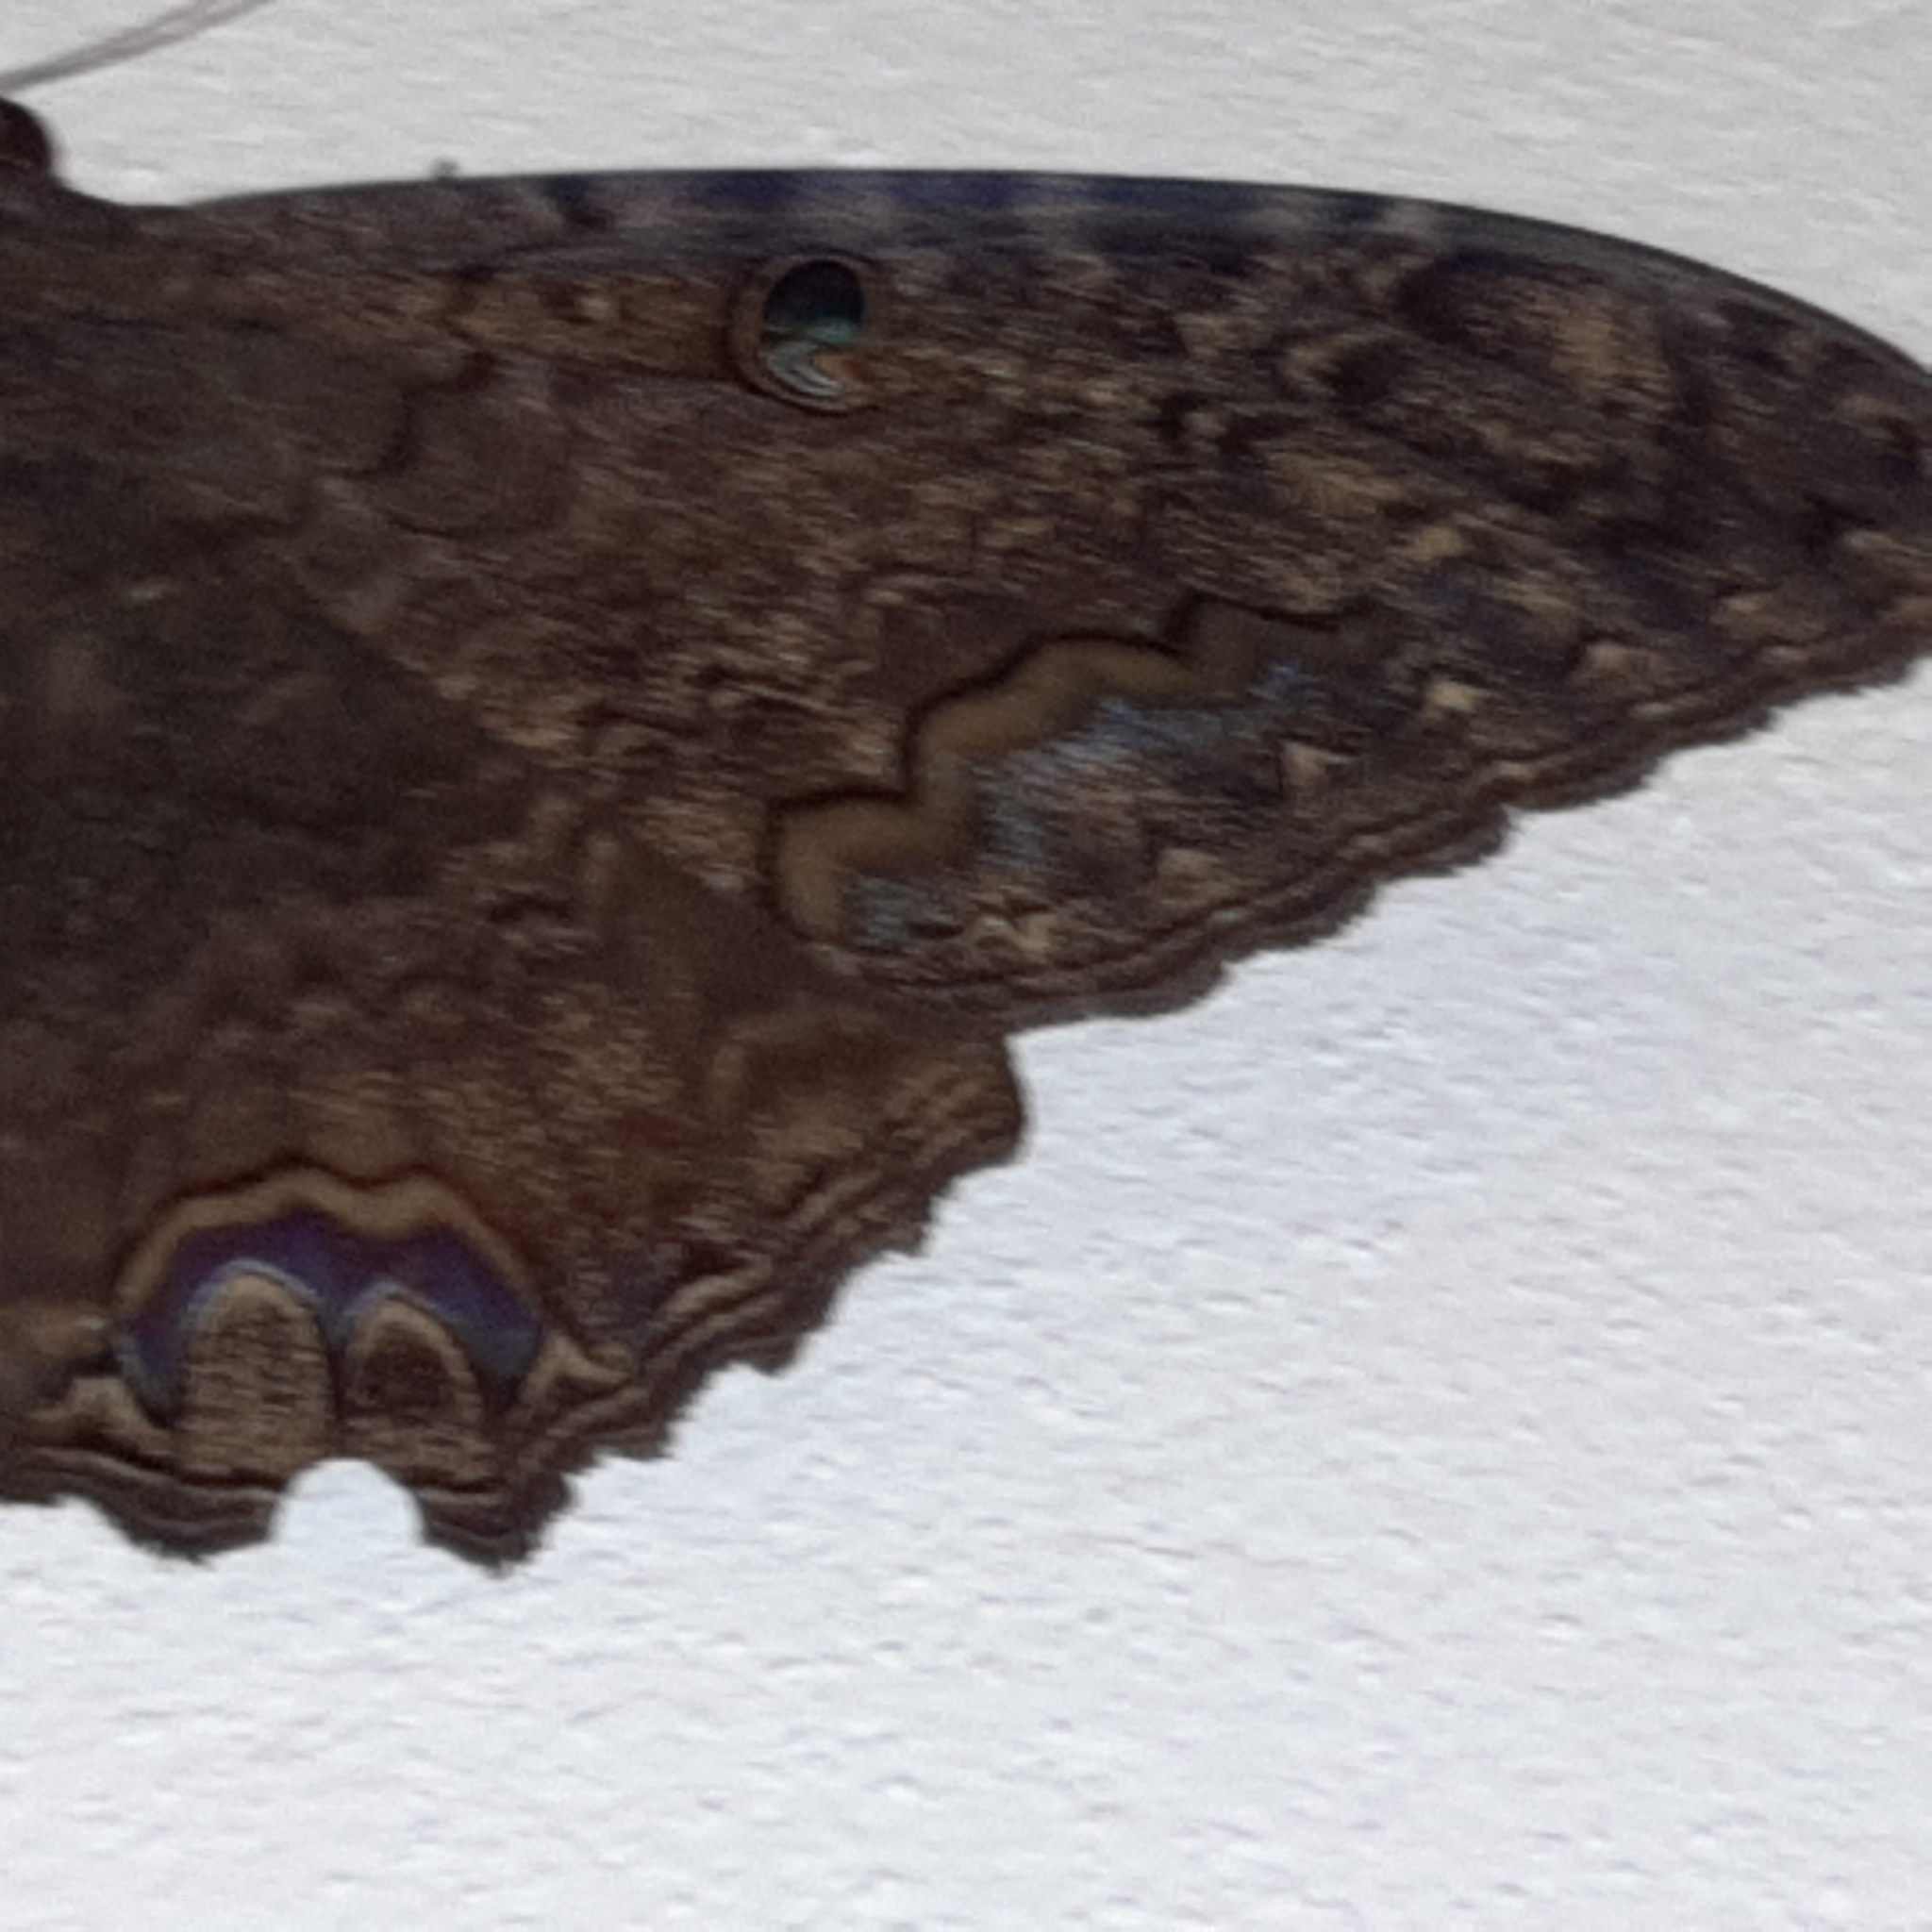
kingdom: Animalia
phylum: Arthropoda
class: Insecta
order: Lepidoptera
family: Erebidae
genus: Ascalapha
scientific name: Ascalapha odorata
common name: Black witch
